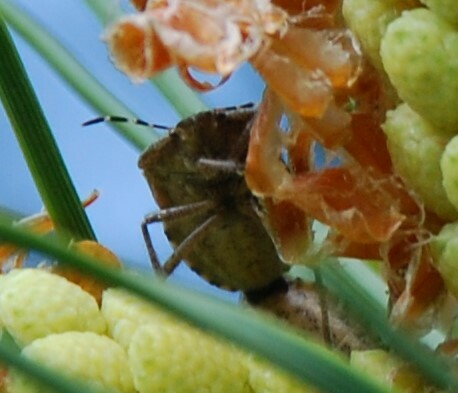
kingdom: Animalia
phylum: Arthropoda
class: Insecta
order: Hemiptera
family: Pentatomidae
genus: Dolycoris
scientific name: Dolycoris baccarum
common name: Sloe bug
